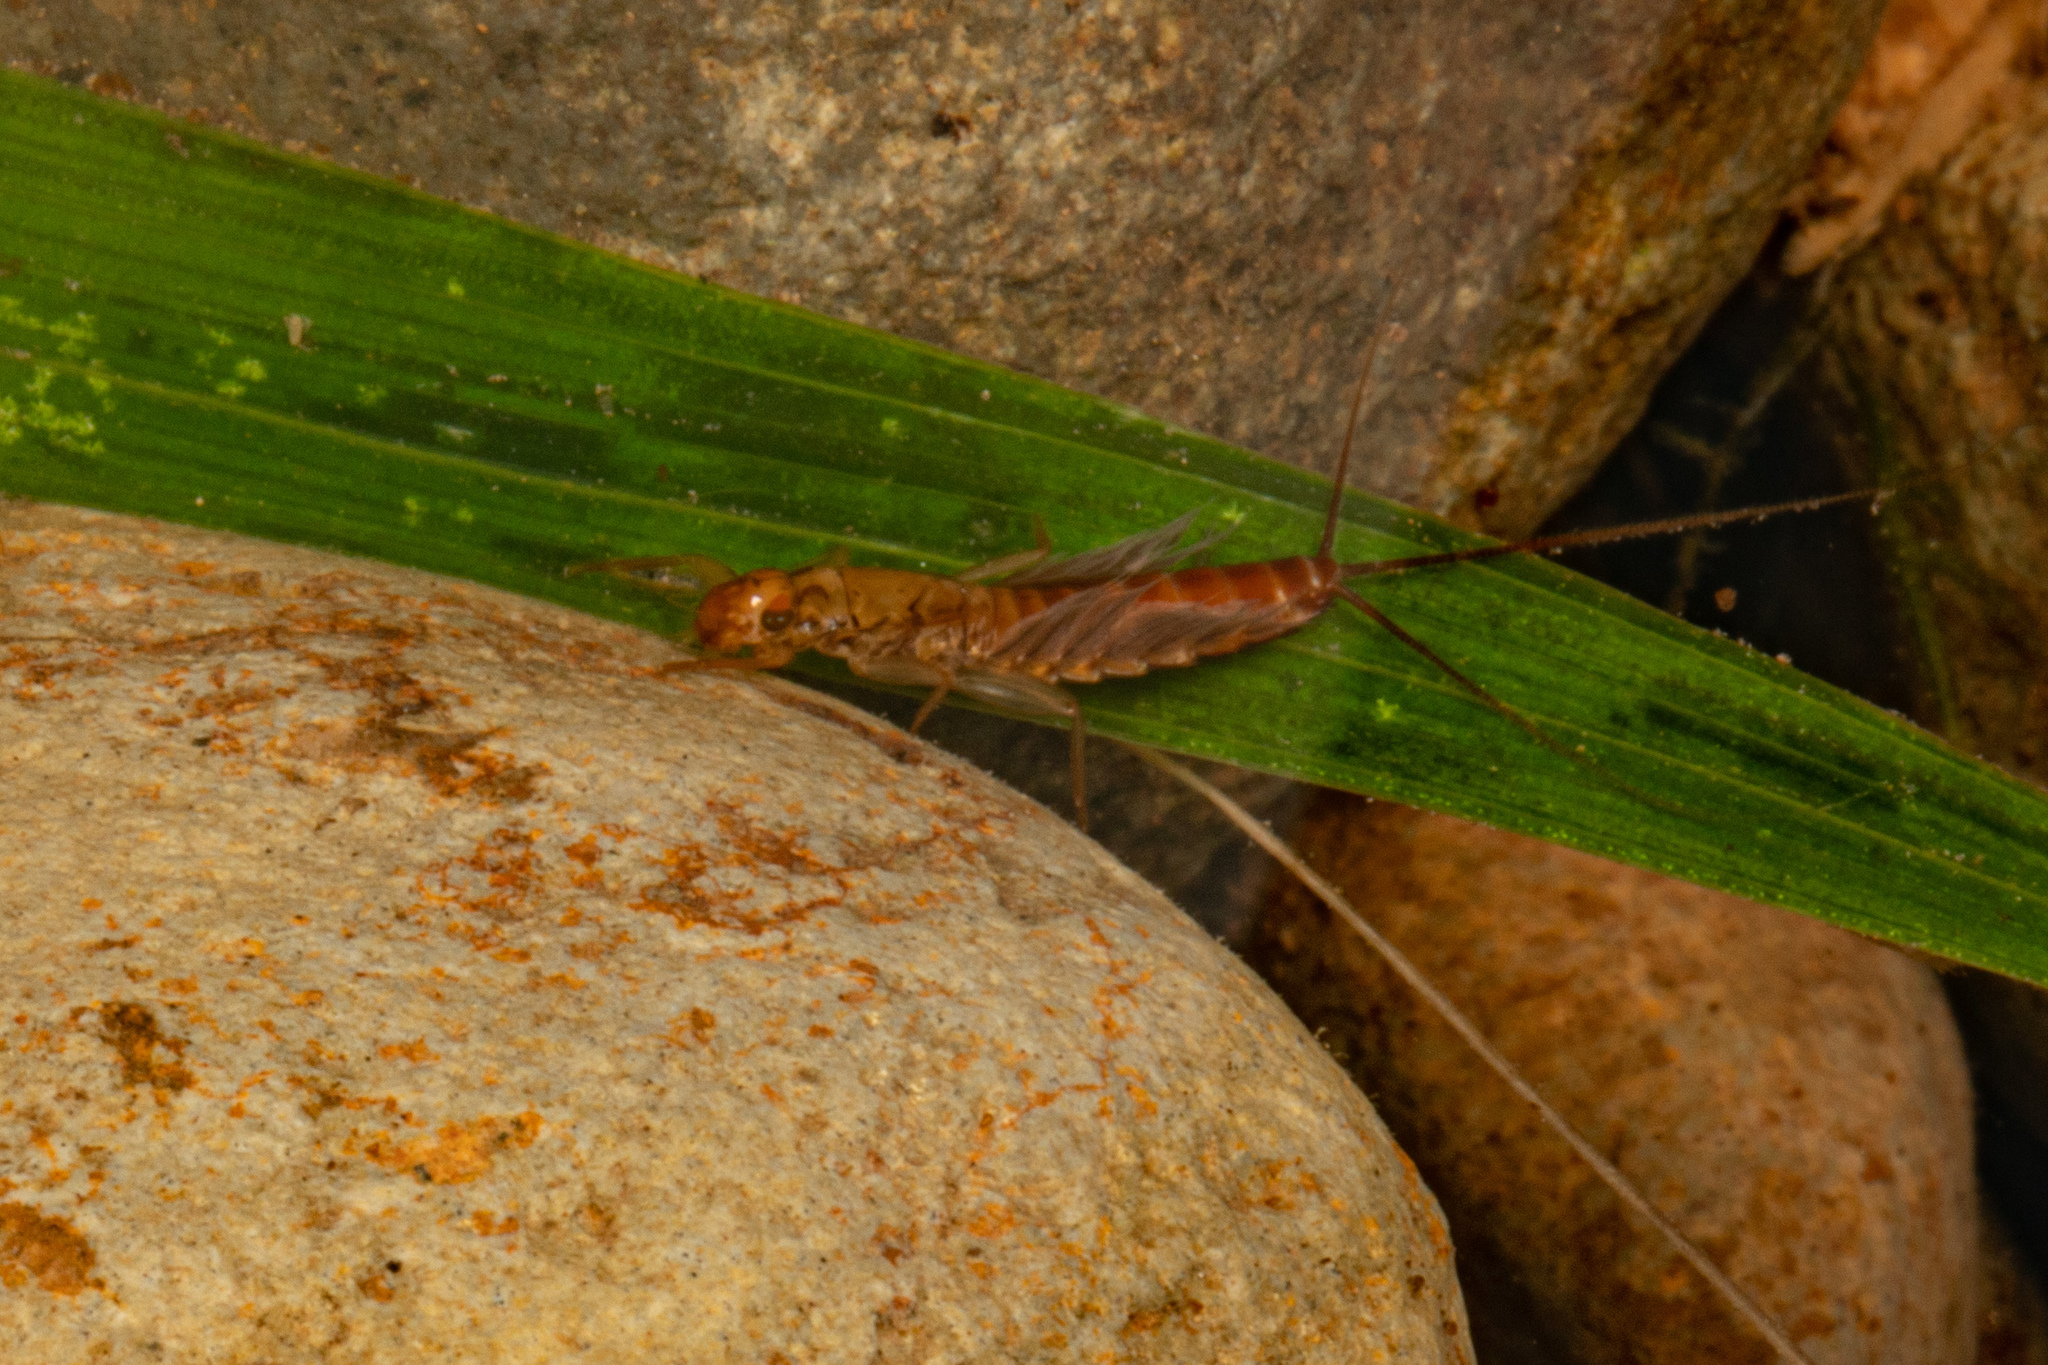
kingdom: Animalia
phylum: Arthropoda
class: Insecta
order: Ephemeroptera
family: Leptophlebiidae
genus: Acanthophlebia
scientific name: Acanthophlebia cruentata
